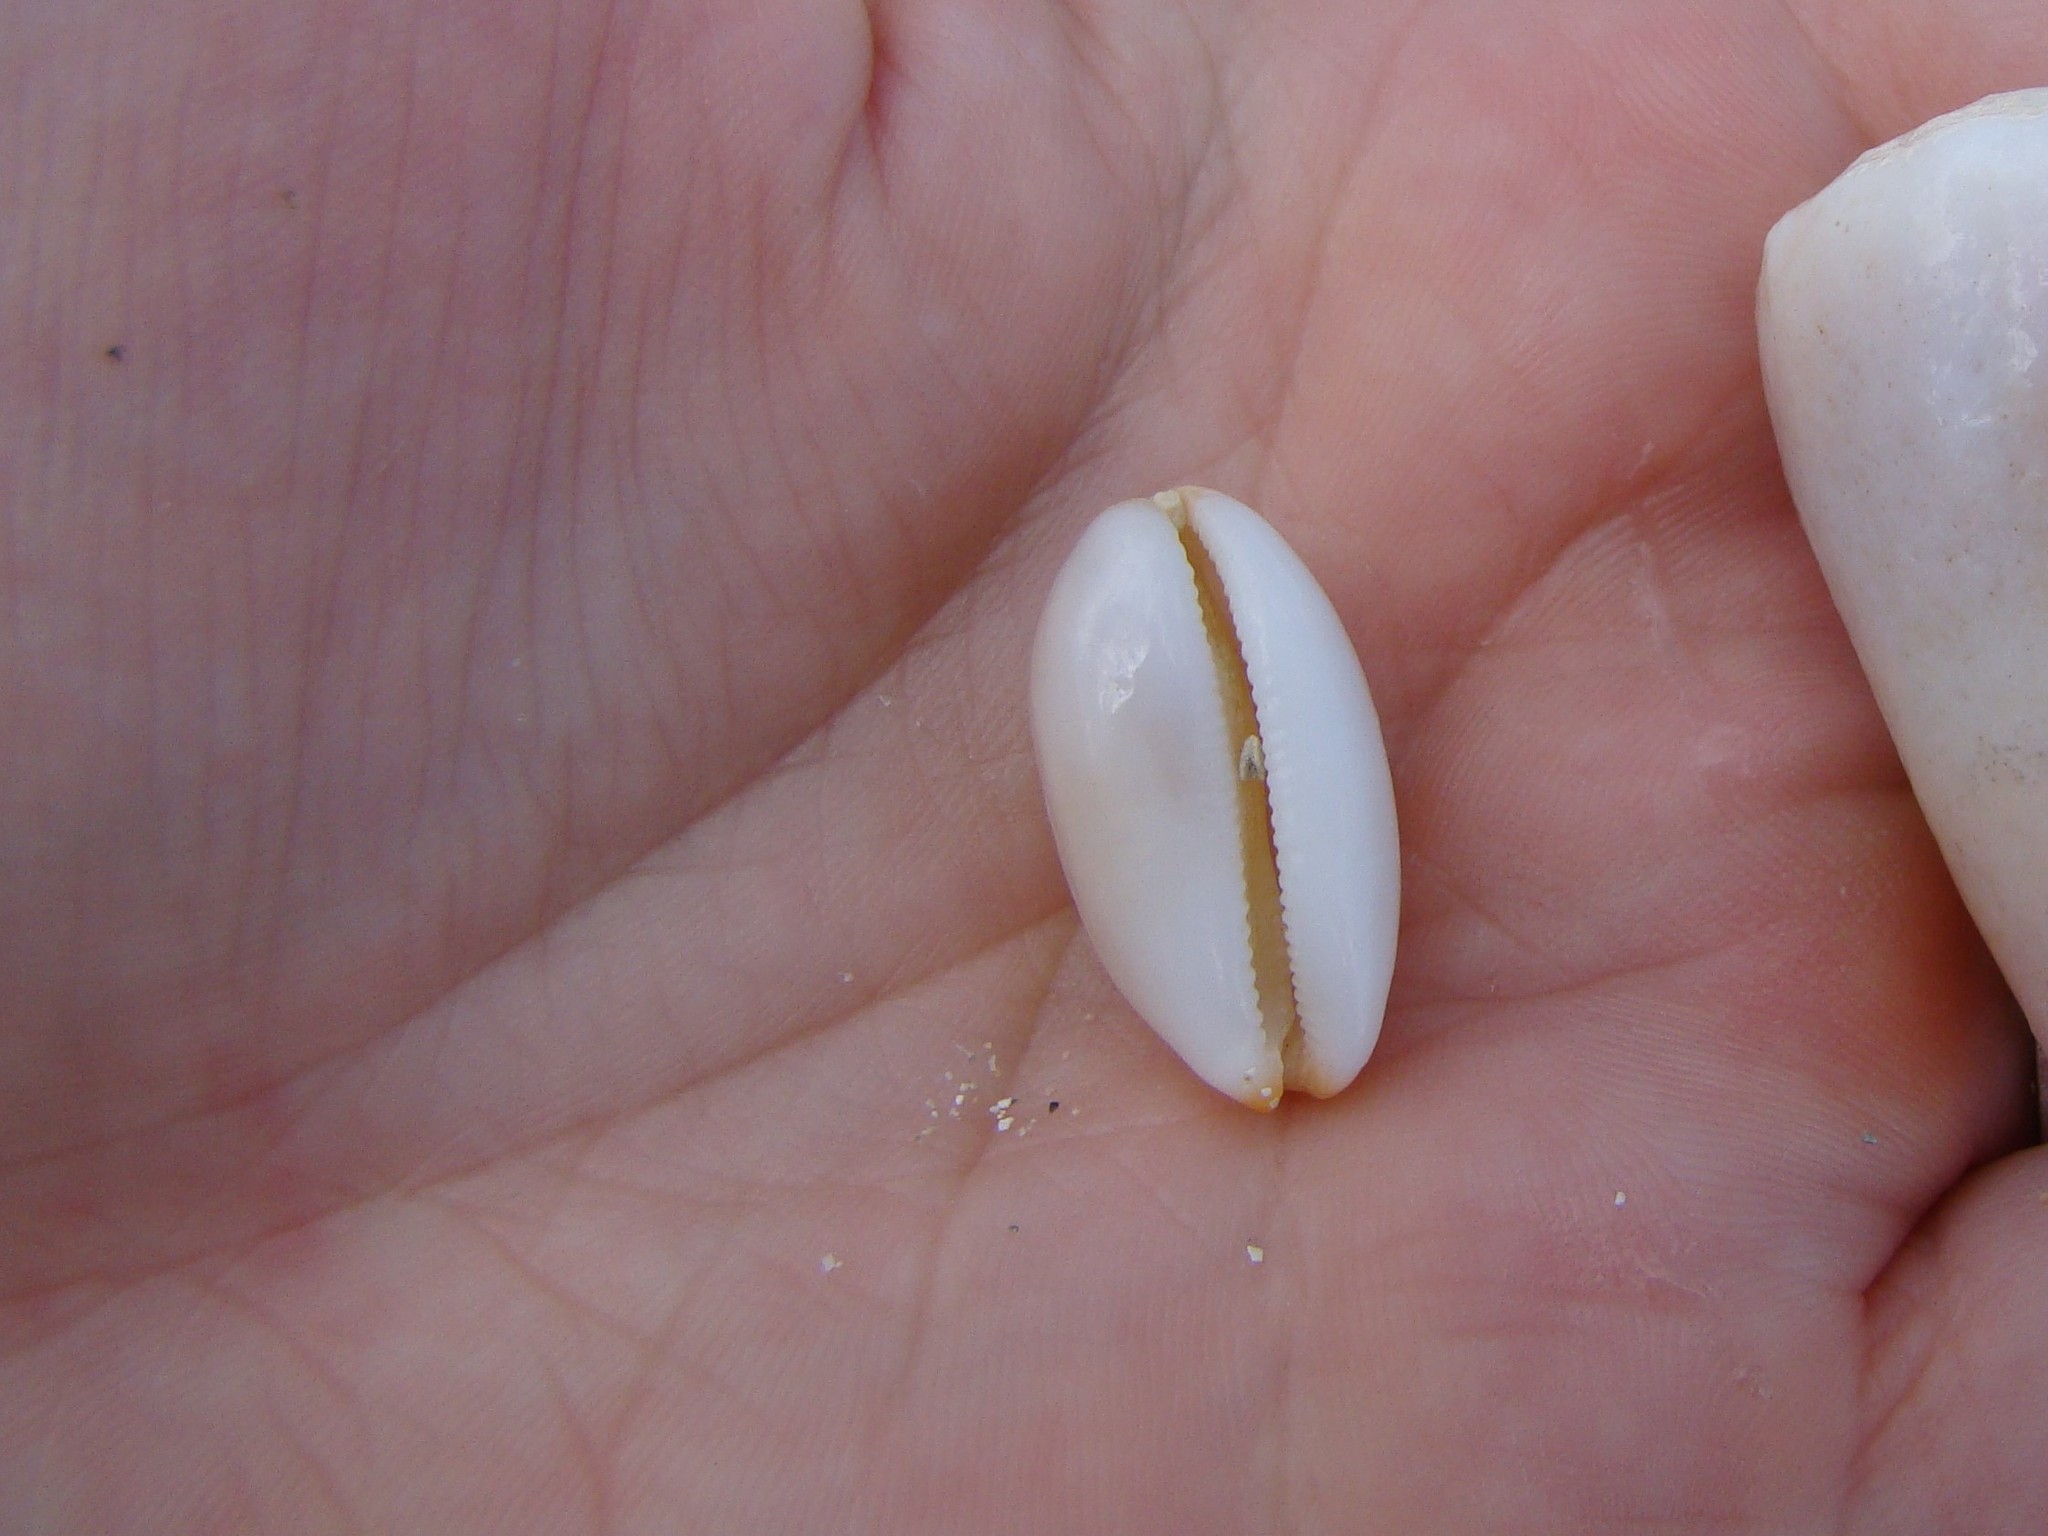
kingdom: Animalia
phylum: Mollusca
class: Gastropoda
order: Littorinimorpha
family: Cypraeidae
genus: Luria
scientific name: Luria isabella
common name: Isabell cowry
